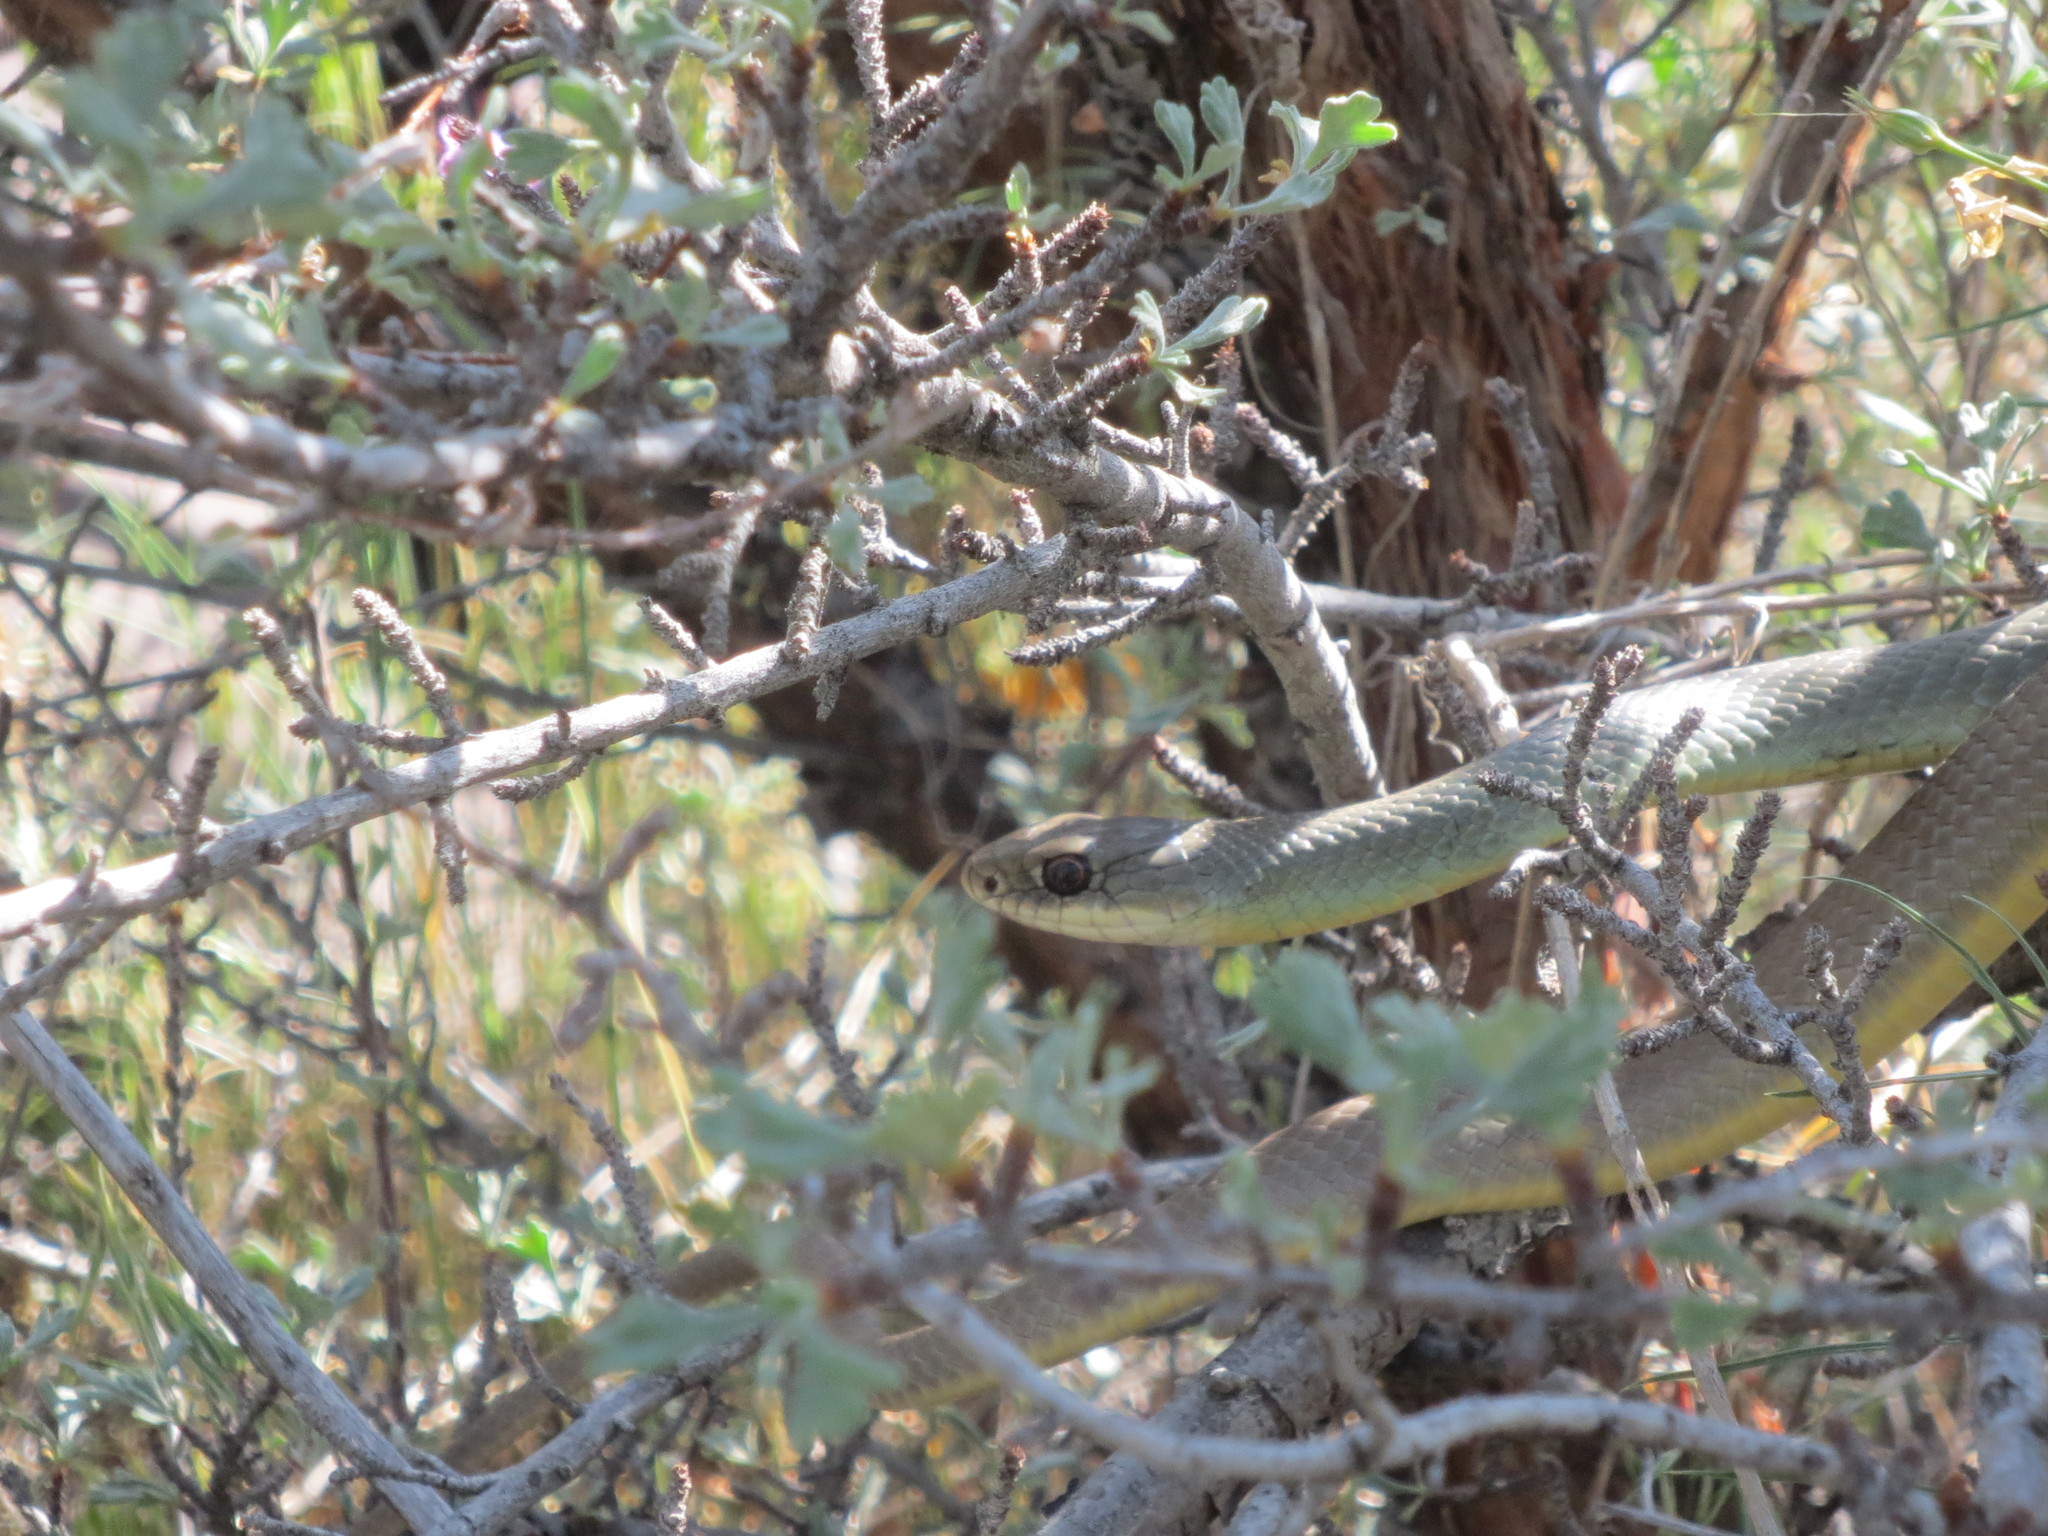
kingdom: Animalia
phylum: Chordata
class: Squamata
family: Colubridae
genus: Coluber
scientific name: Coluber constrictor
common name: Eastern racer
